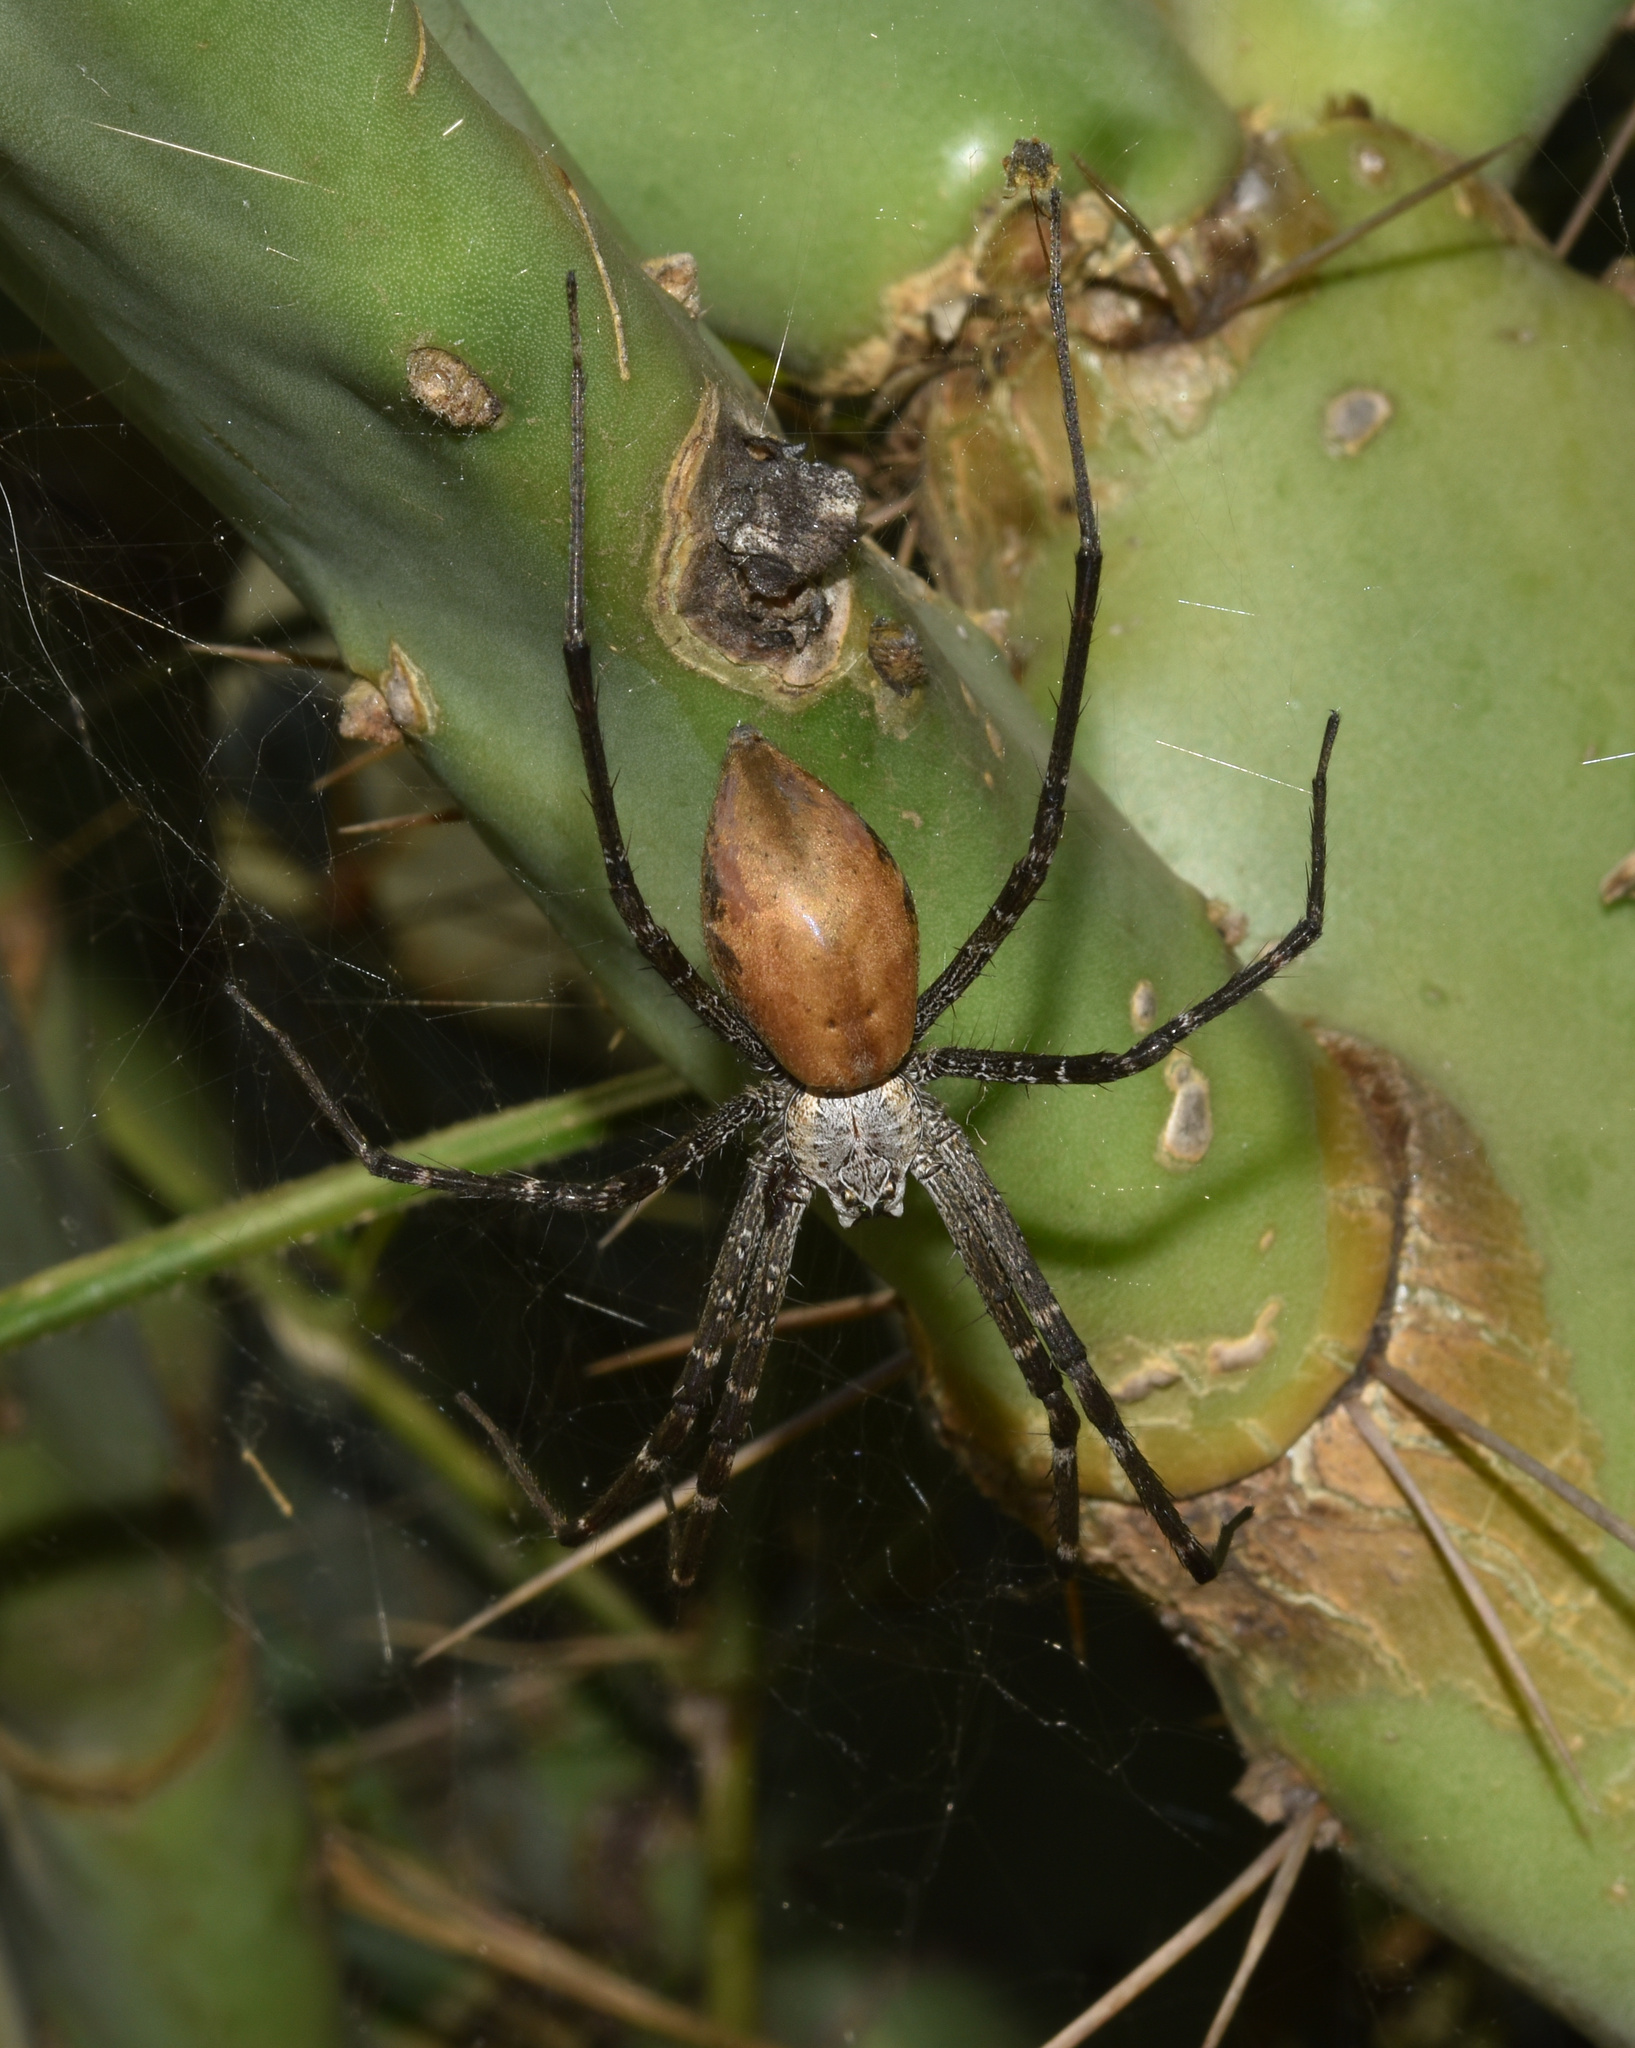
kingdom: Animalia
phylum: Arthropoda
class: Arachnida
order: Araneae
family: Pisauridae
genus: Euprosthenops
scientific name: Euprosthenops australis
